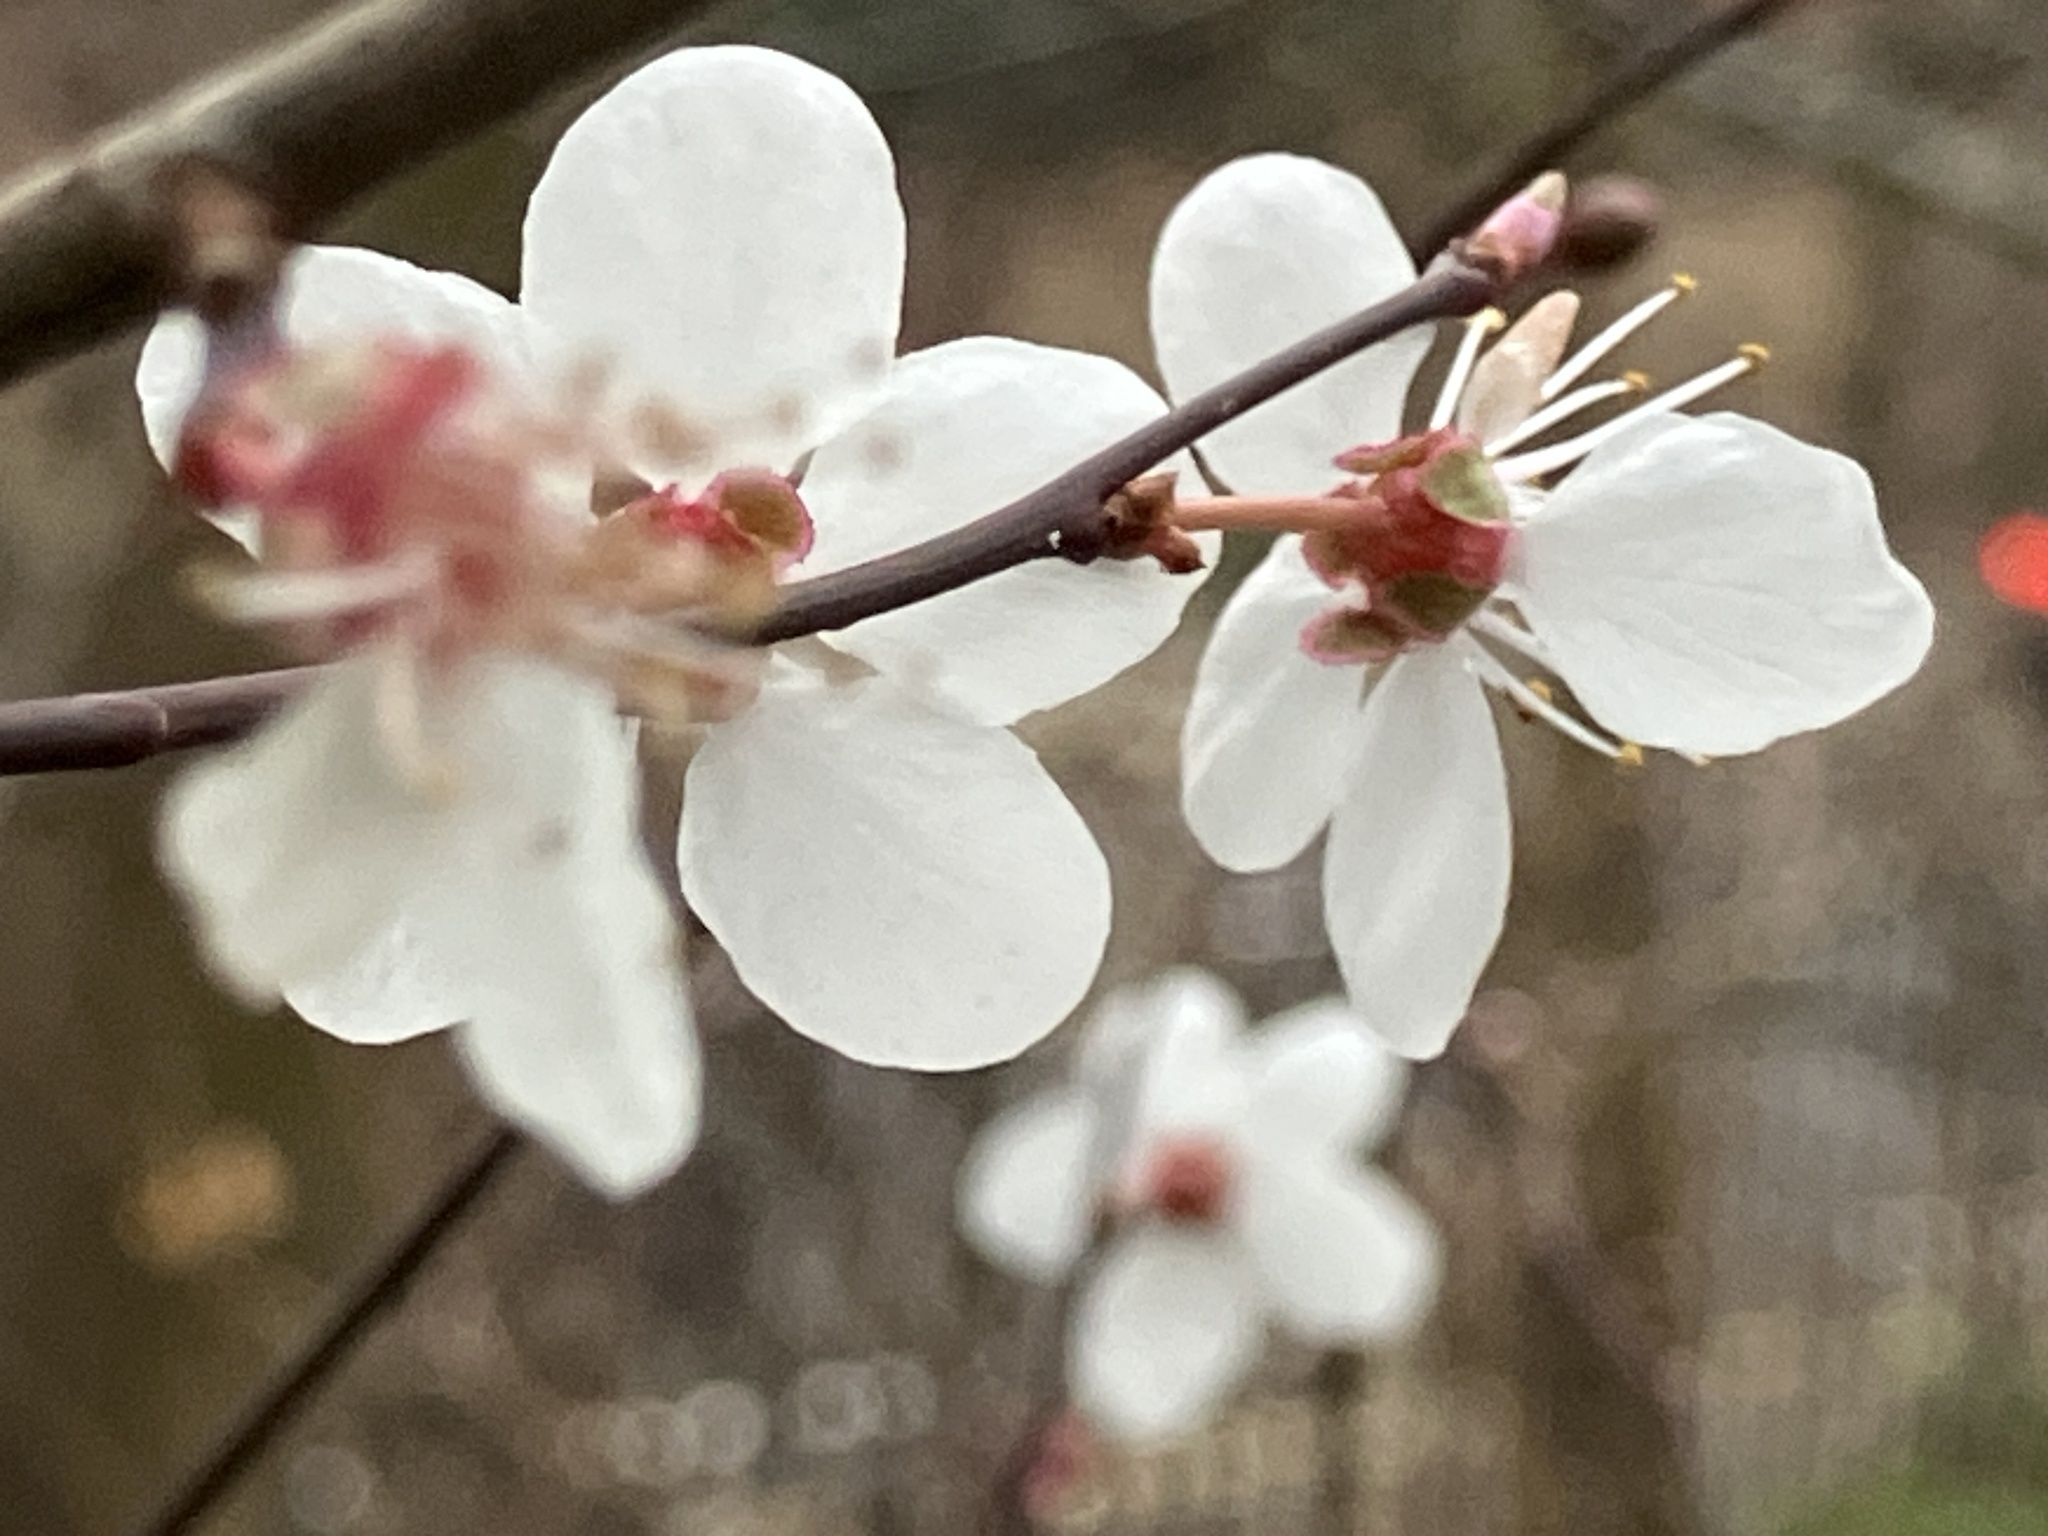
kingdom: Plantae
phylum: Tracheophyta
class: Magnoliopsida
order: Rosales
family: Rosaceae
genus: Prunus
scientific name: Prunus cerasifera
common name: Cherry plum
